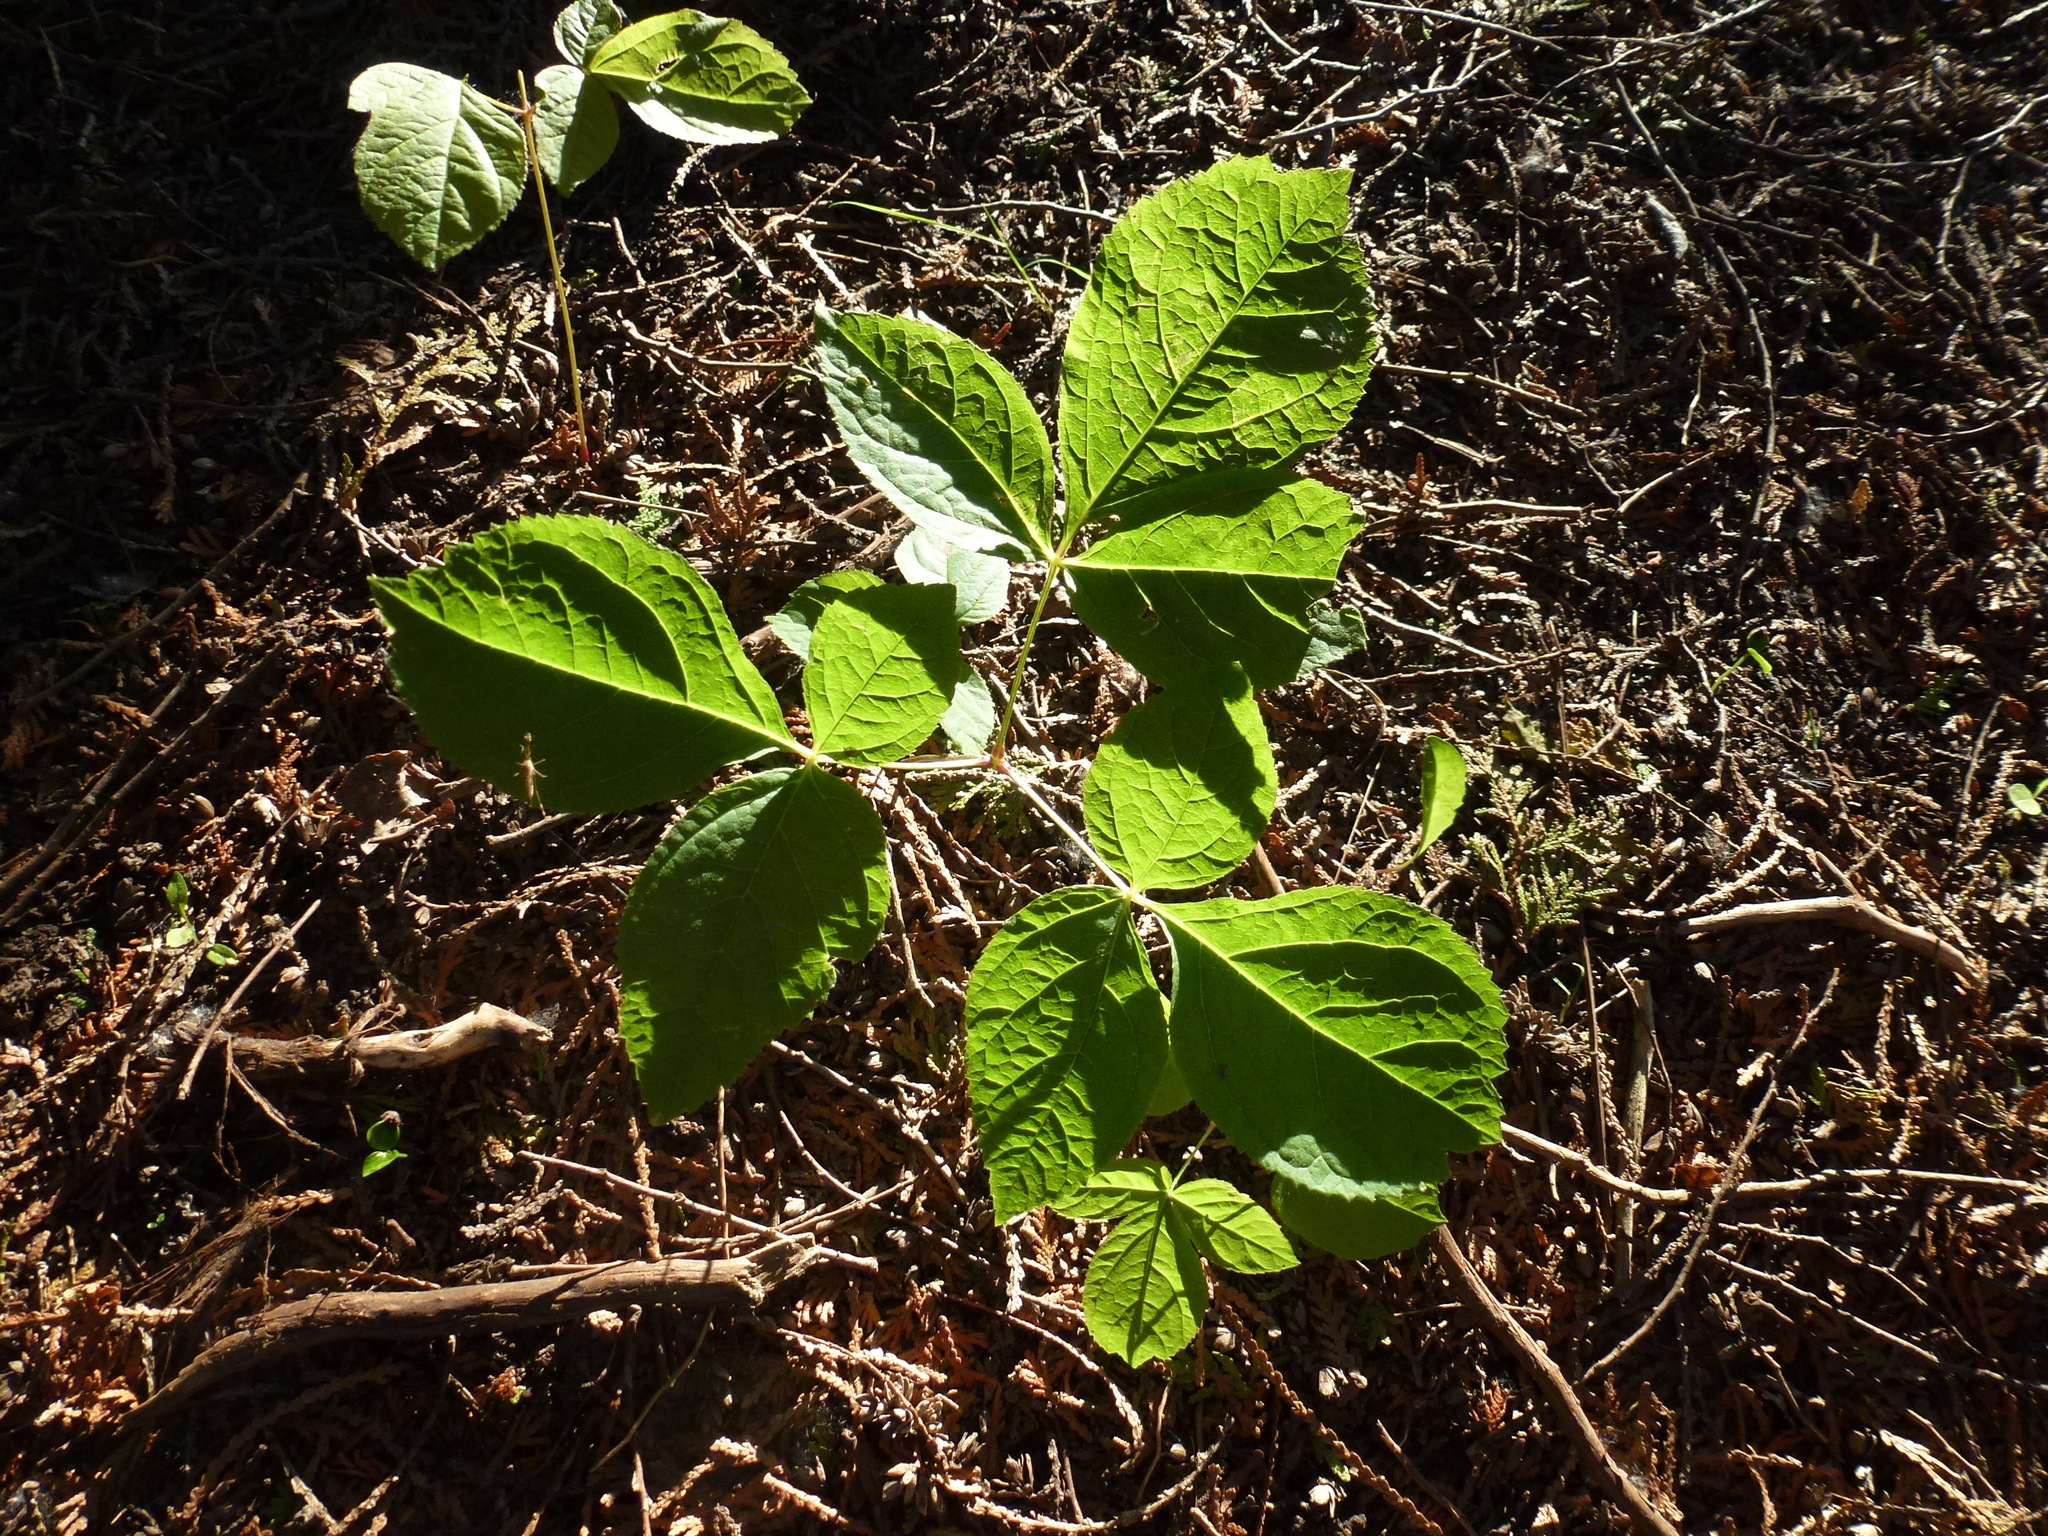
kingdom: Plantae
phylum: Tracheophyta
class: Magnoliopsida
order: Apiales
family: Araliaceae
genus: Aralia
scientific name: Aralia nudicaulis
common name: Wild sarsaparilla
